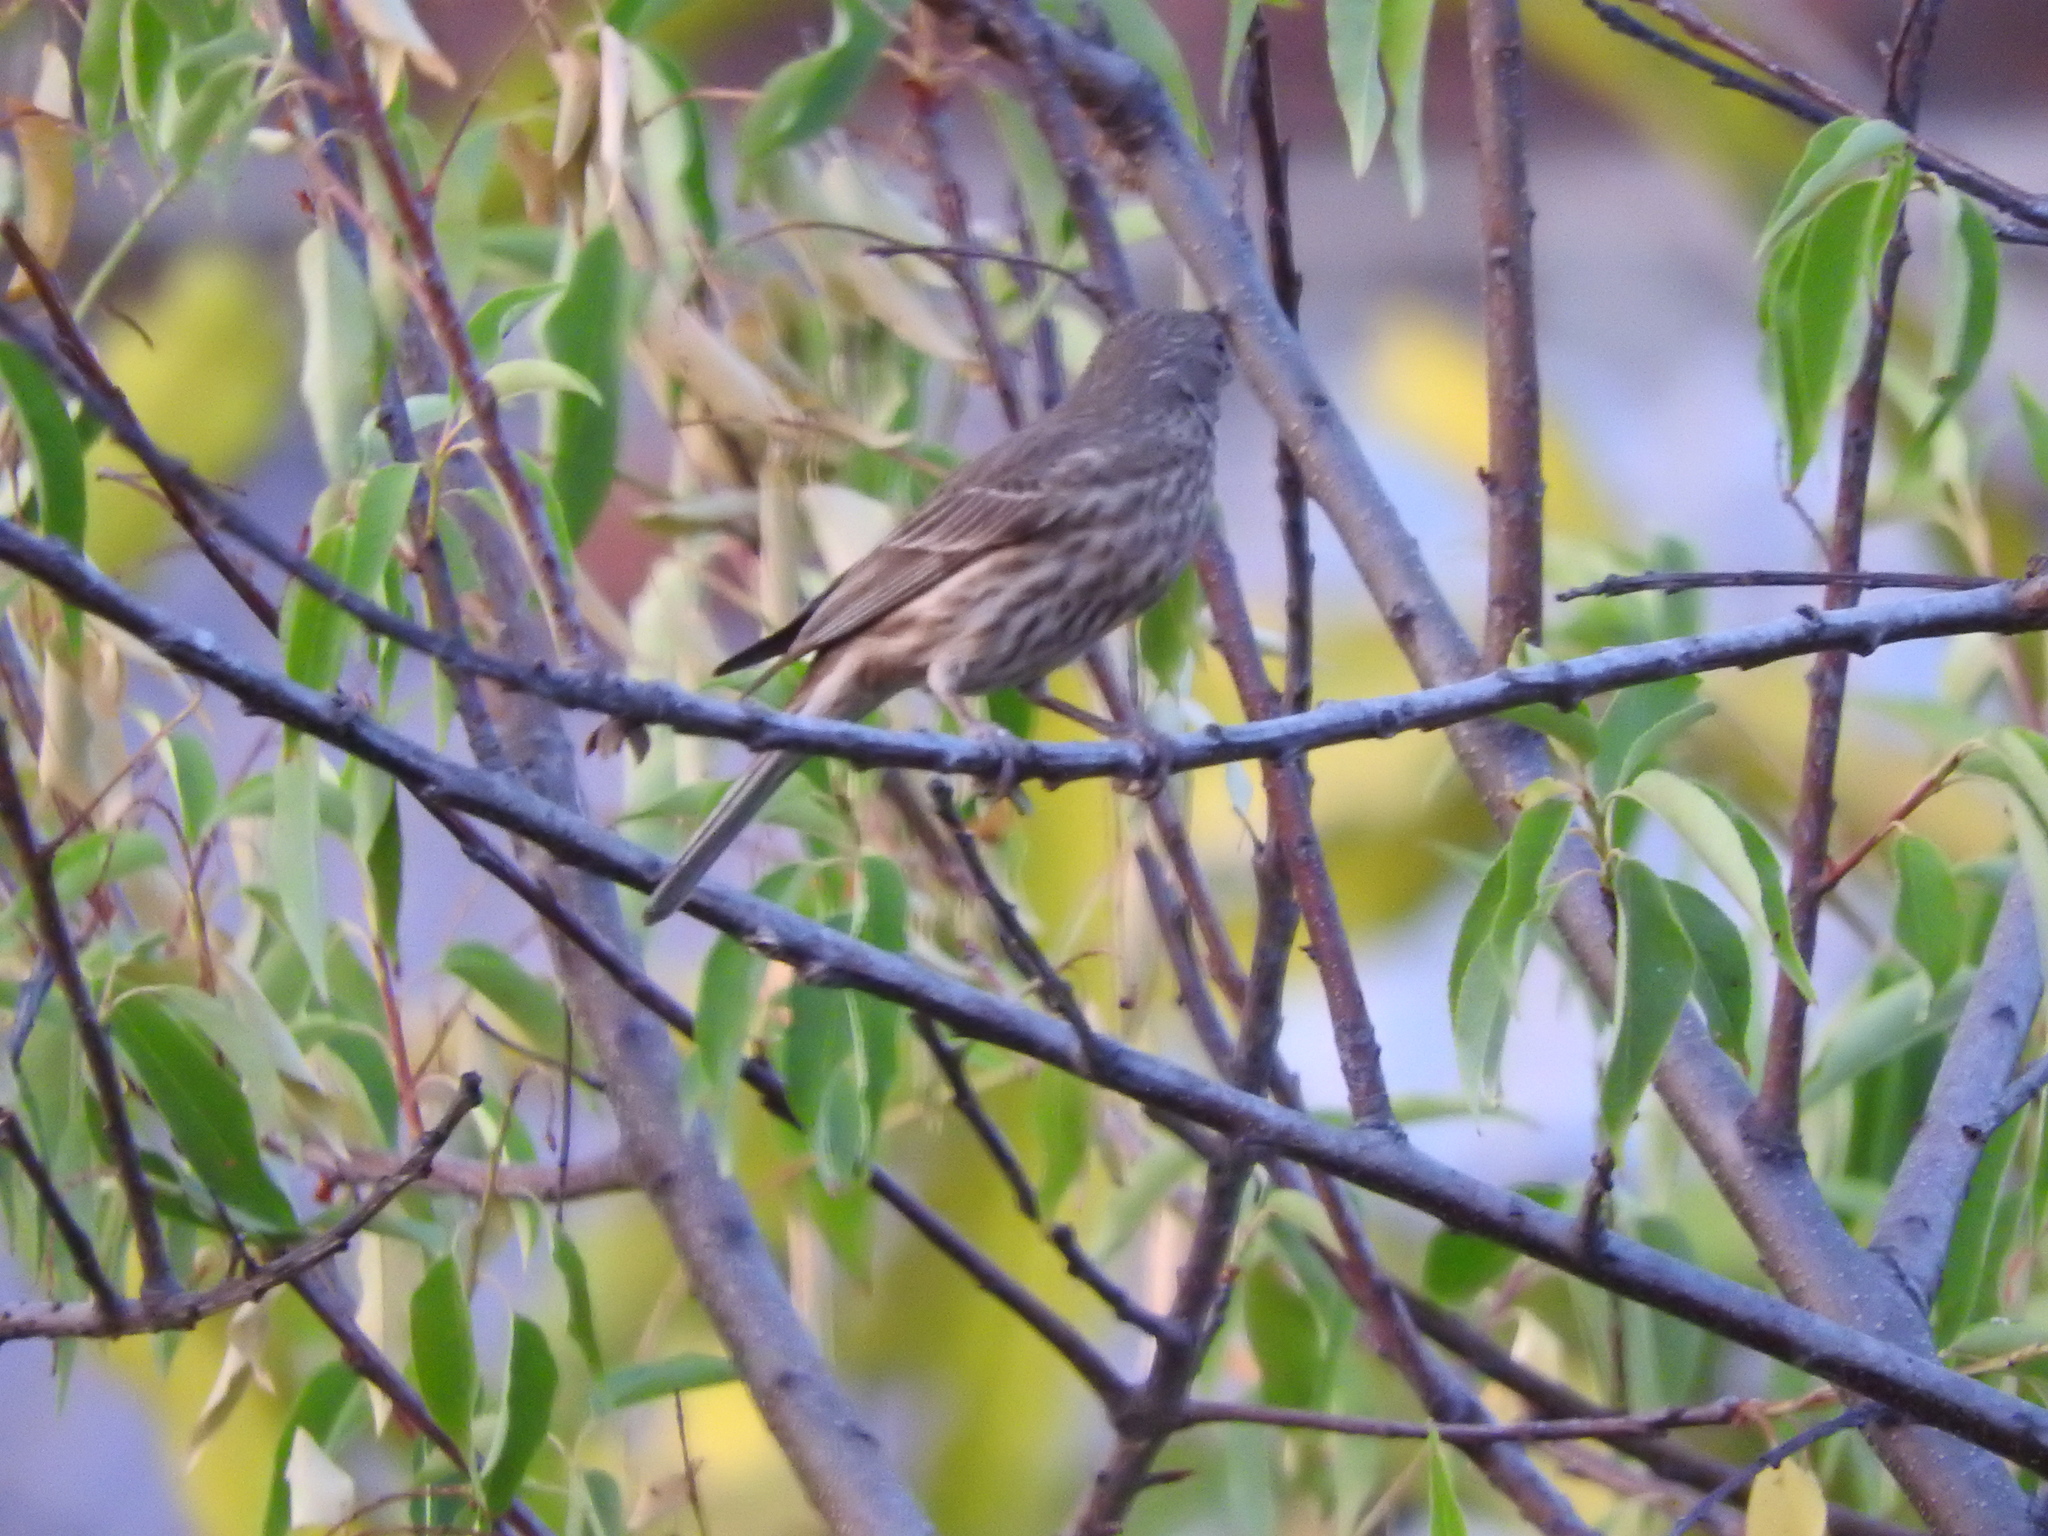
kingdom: Animalia
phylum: Chordata
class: Aves
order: Passeriformes
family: Fringillidae
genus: Haemorhous
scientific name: Haemorhous mexicanus
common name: House finch
